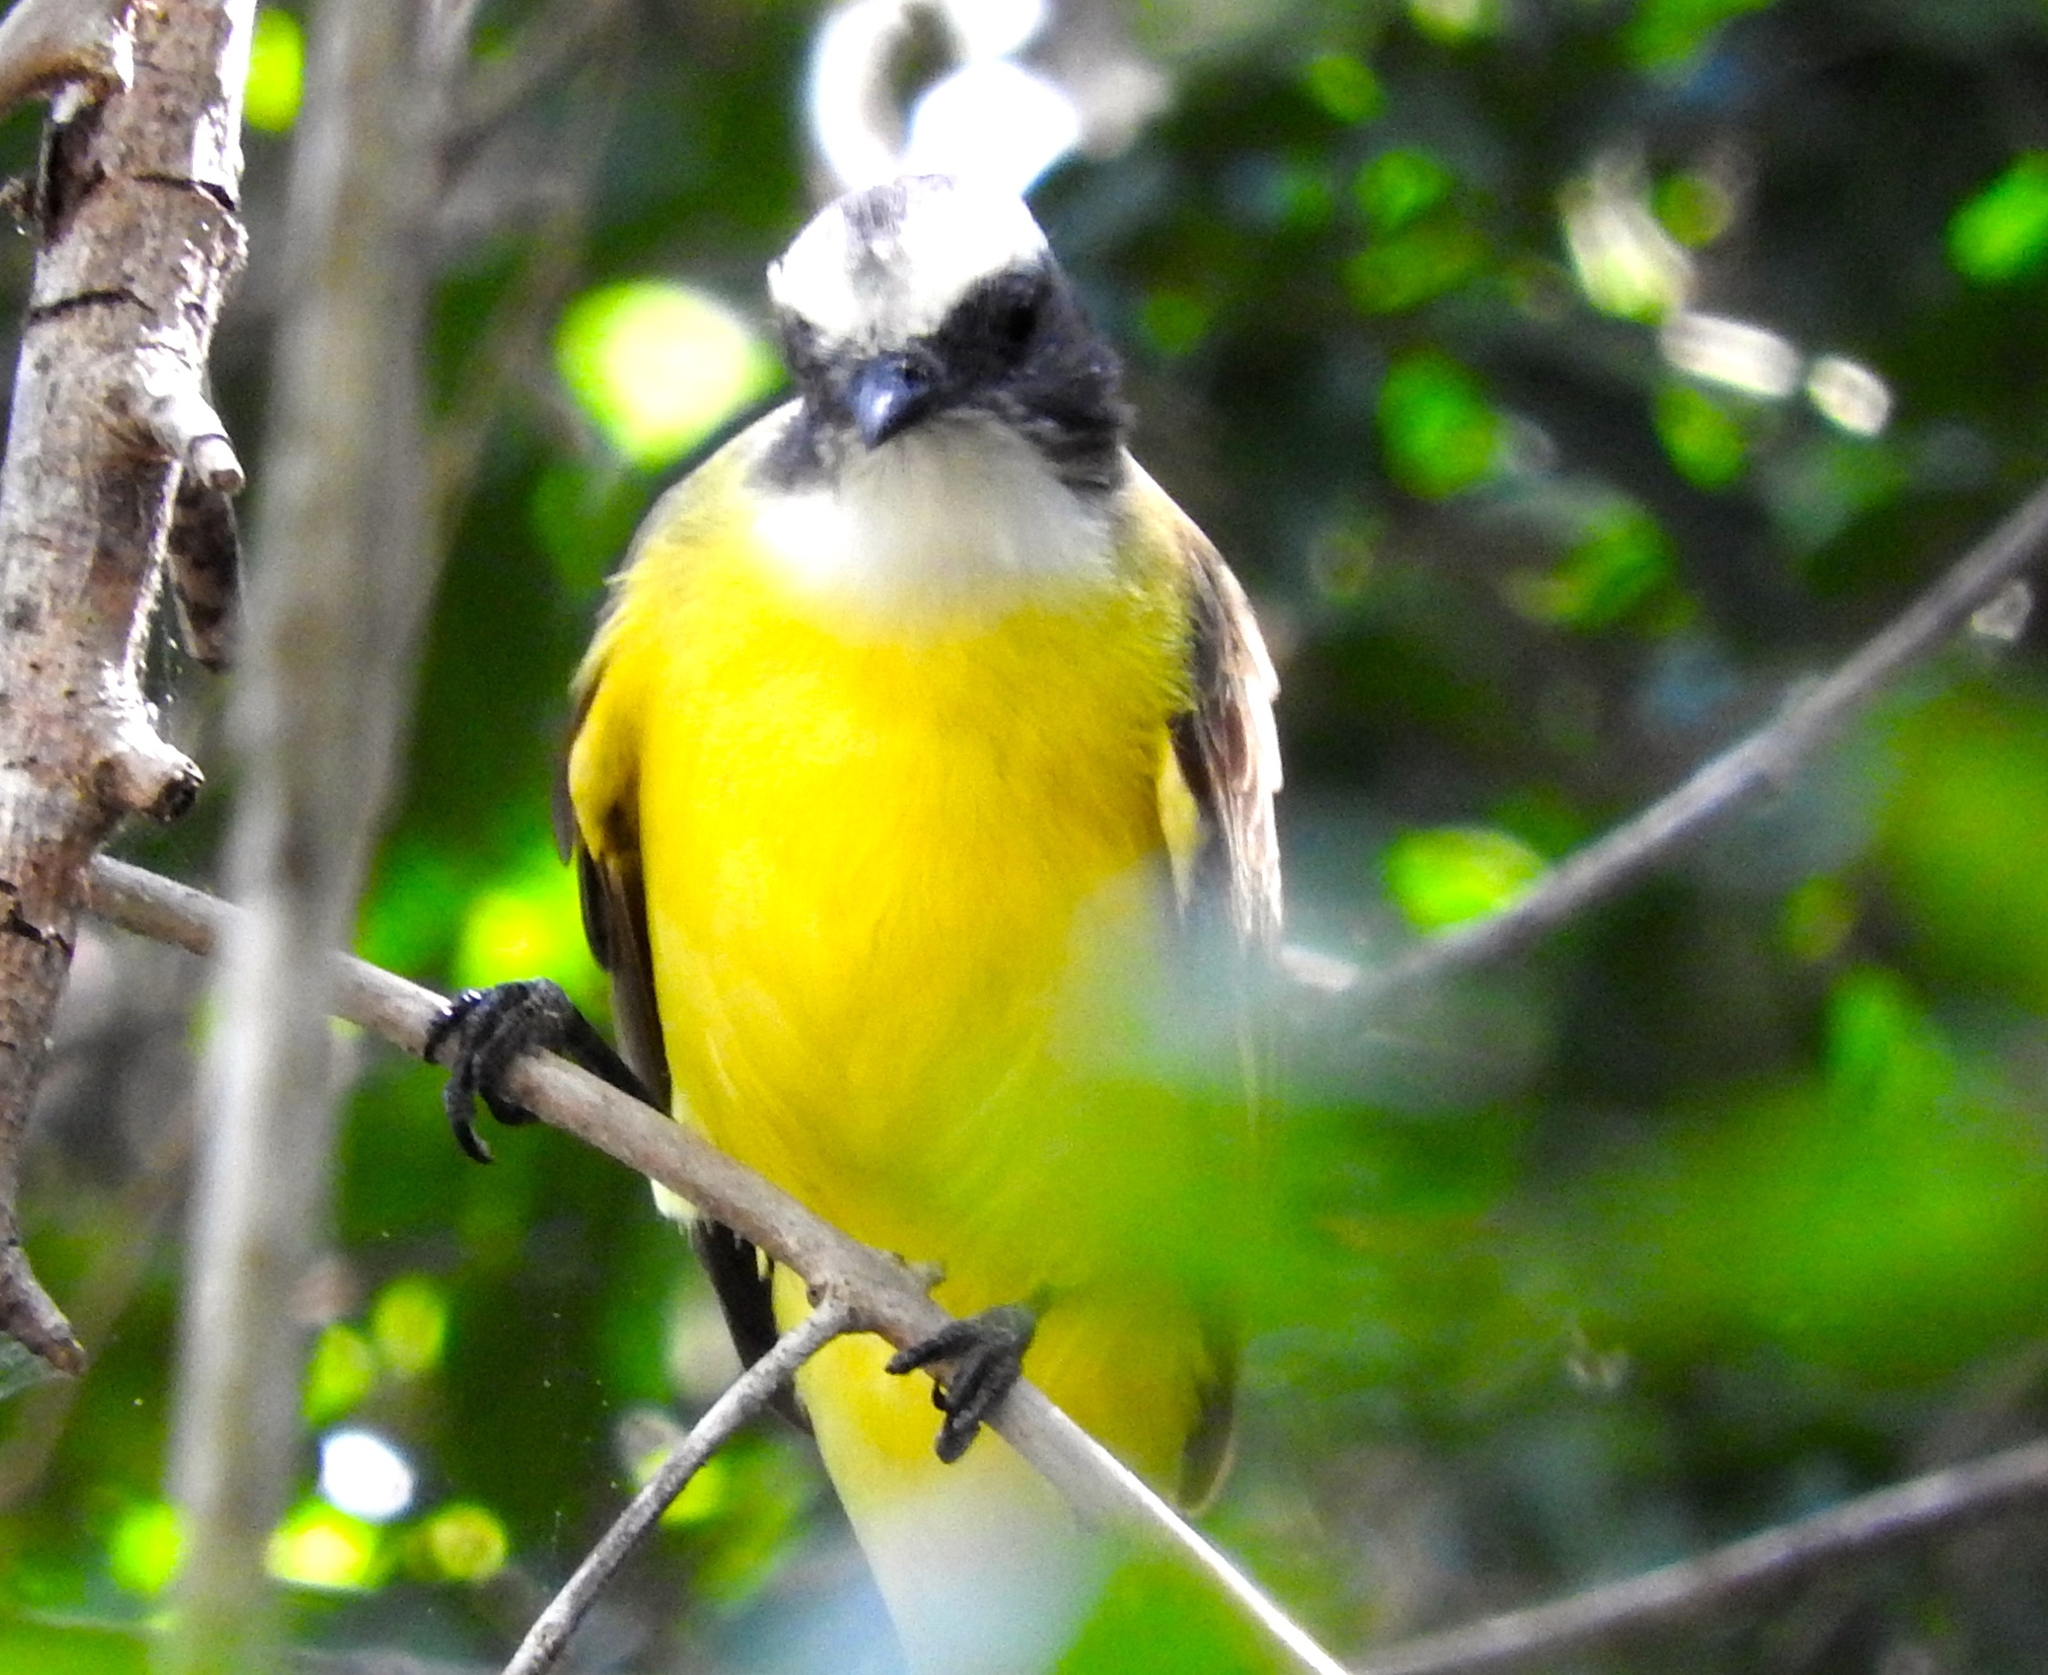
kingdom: Animalia
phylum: Chordata
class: Aves
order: Passeriformes
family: Tyrannidae
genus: Myiozetetes
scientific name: Myiozetetes similis
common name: Social flycatcher
